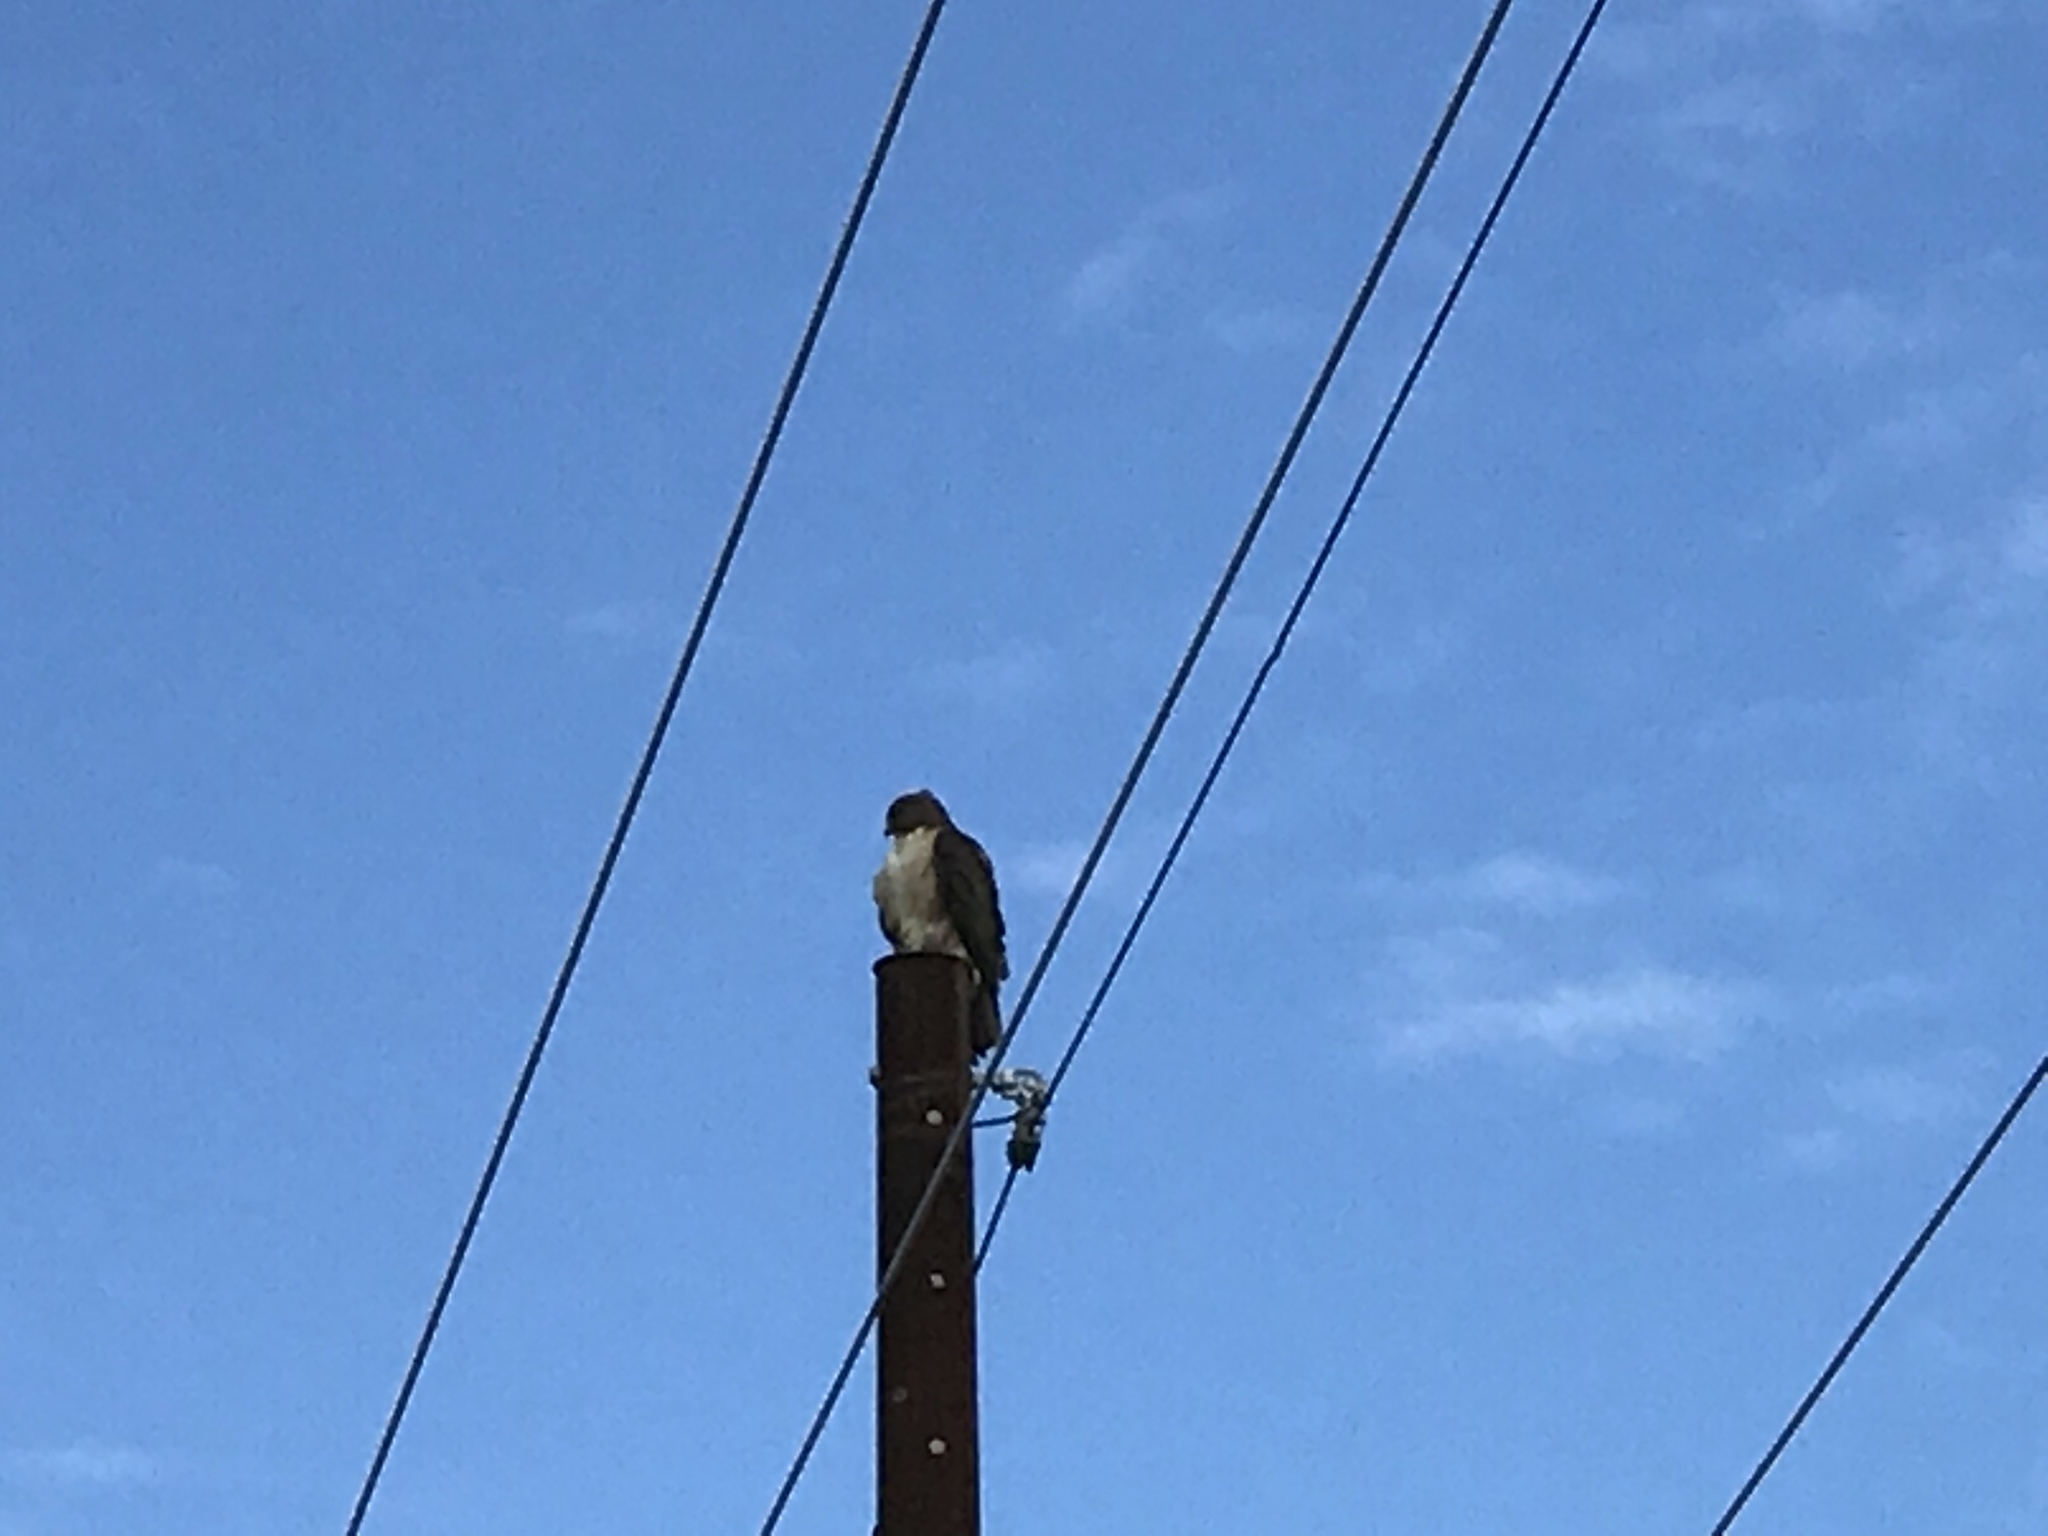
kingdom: Animalia
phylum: Chordata
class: Aves
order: Accipitriformes
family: Accipitridae
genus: Buteo
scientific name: Buteo jamaicensis
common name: Red-tailed hawk
